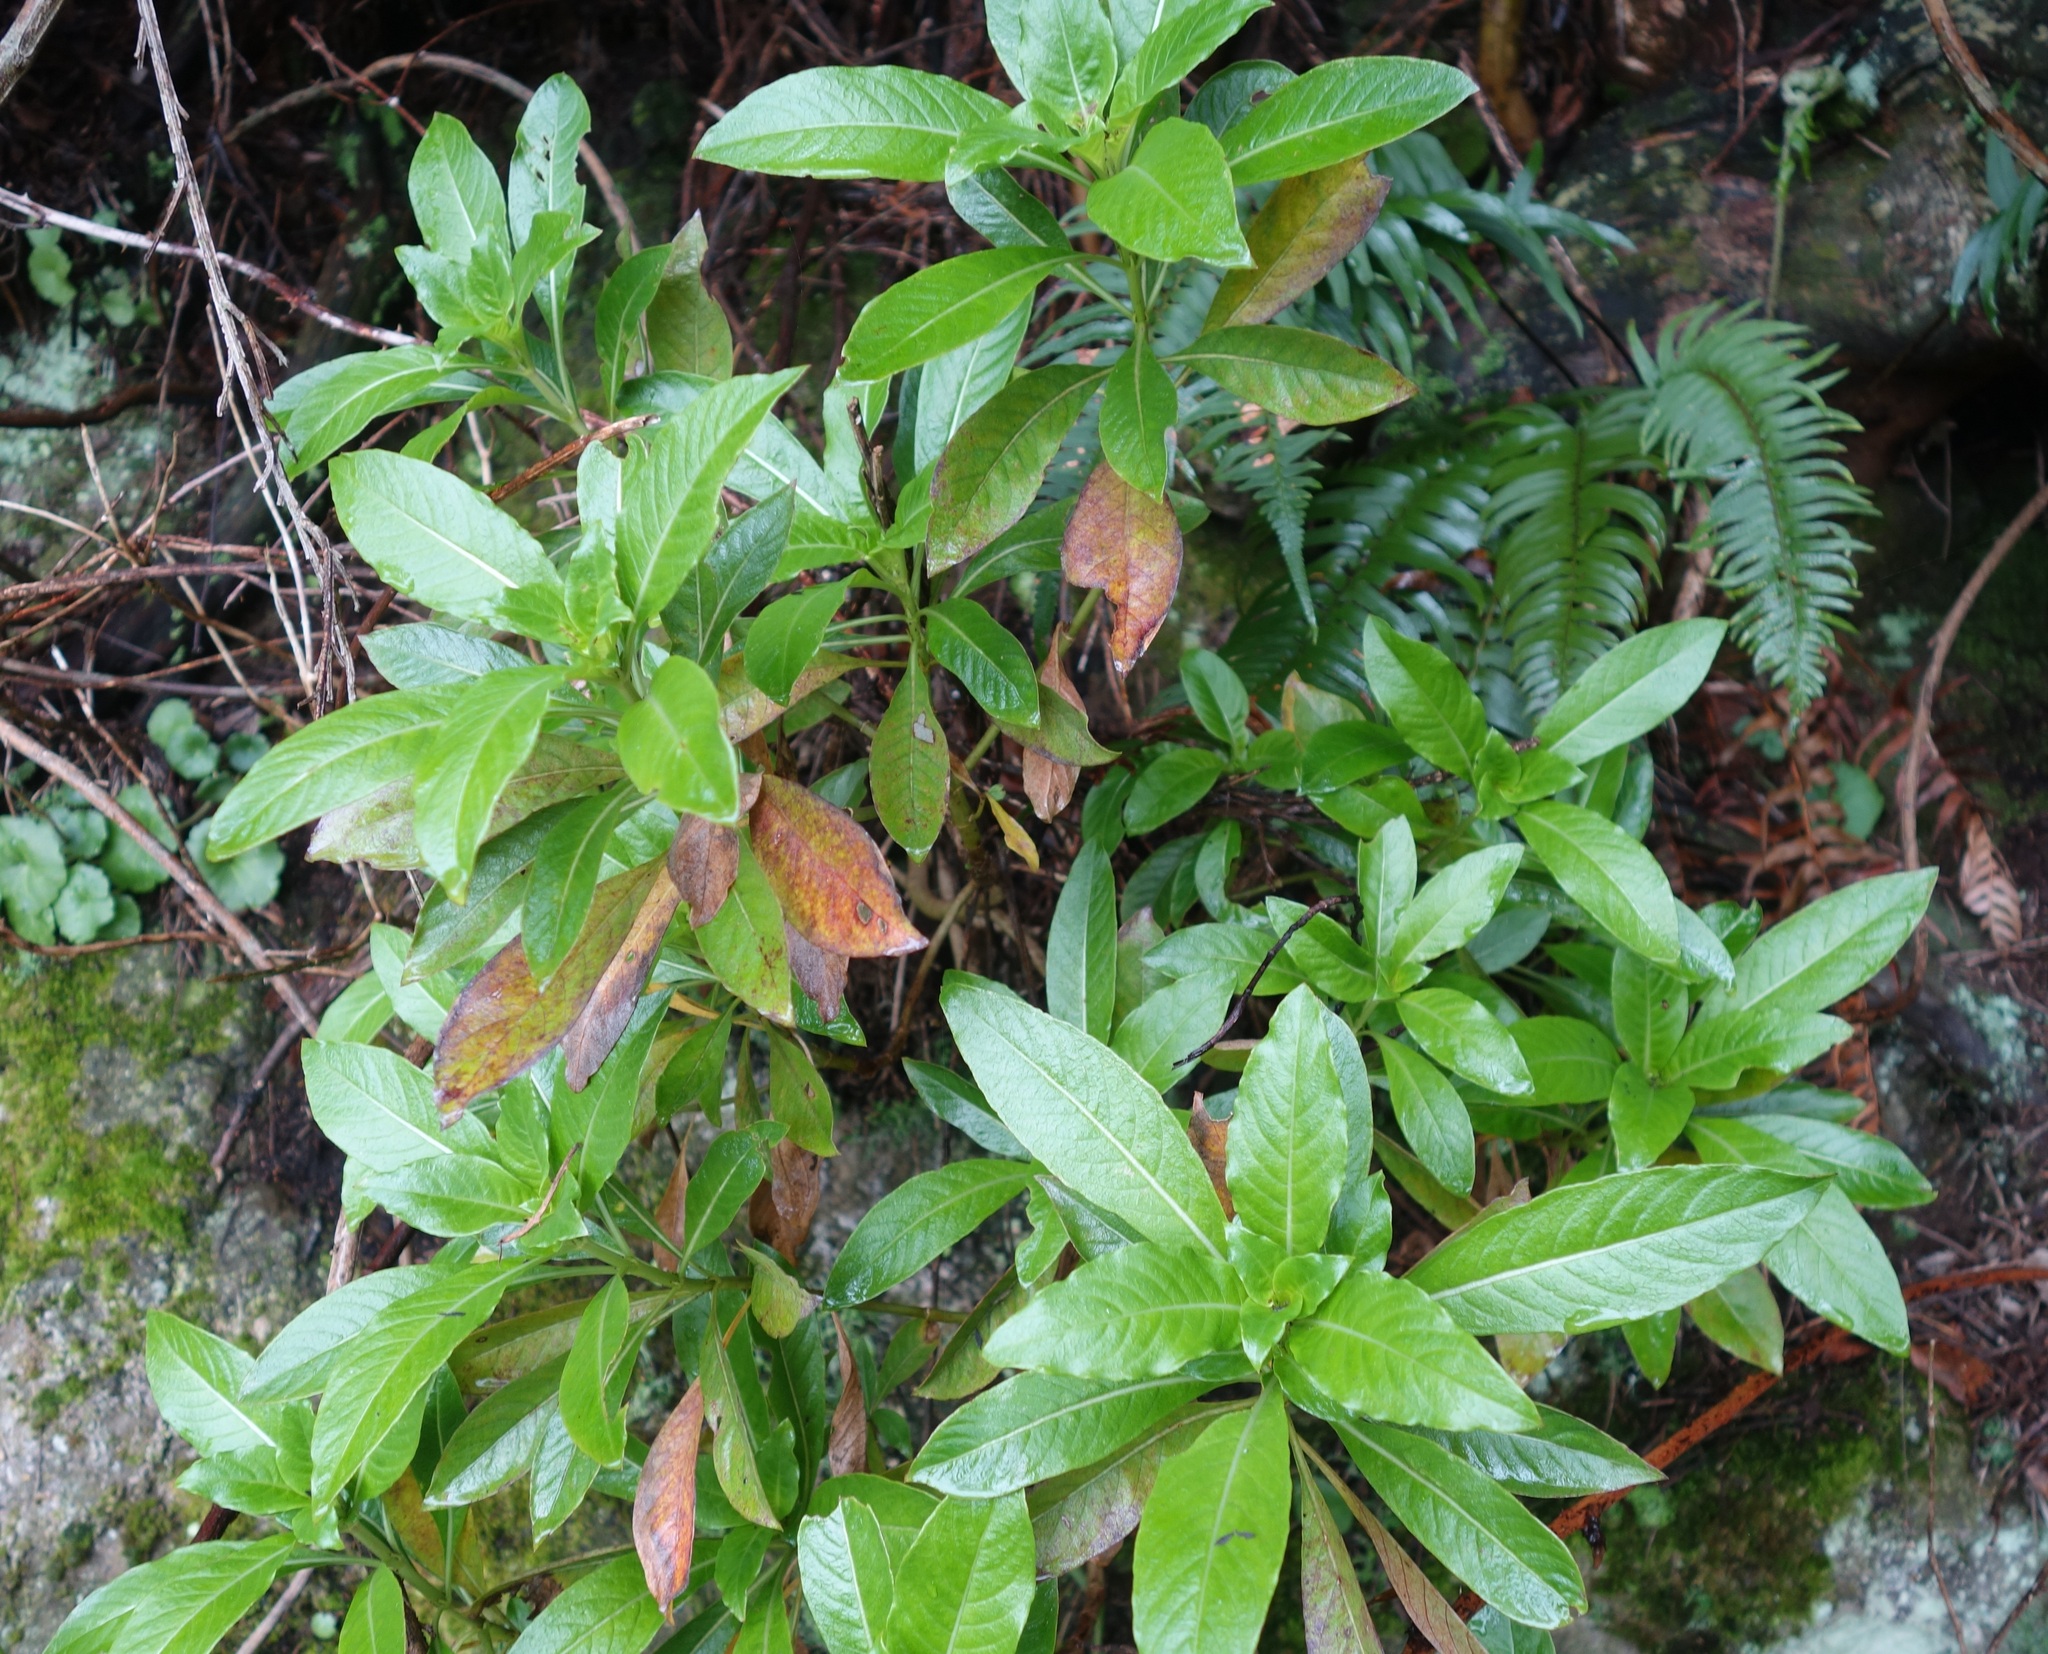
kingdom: Plantae
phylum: Tracheophyta
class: Magnoliopsida
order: Gentianales
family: Rubiaceae
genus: Phyllis
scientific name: Phyllis nobla
